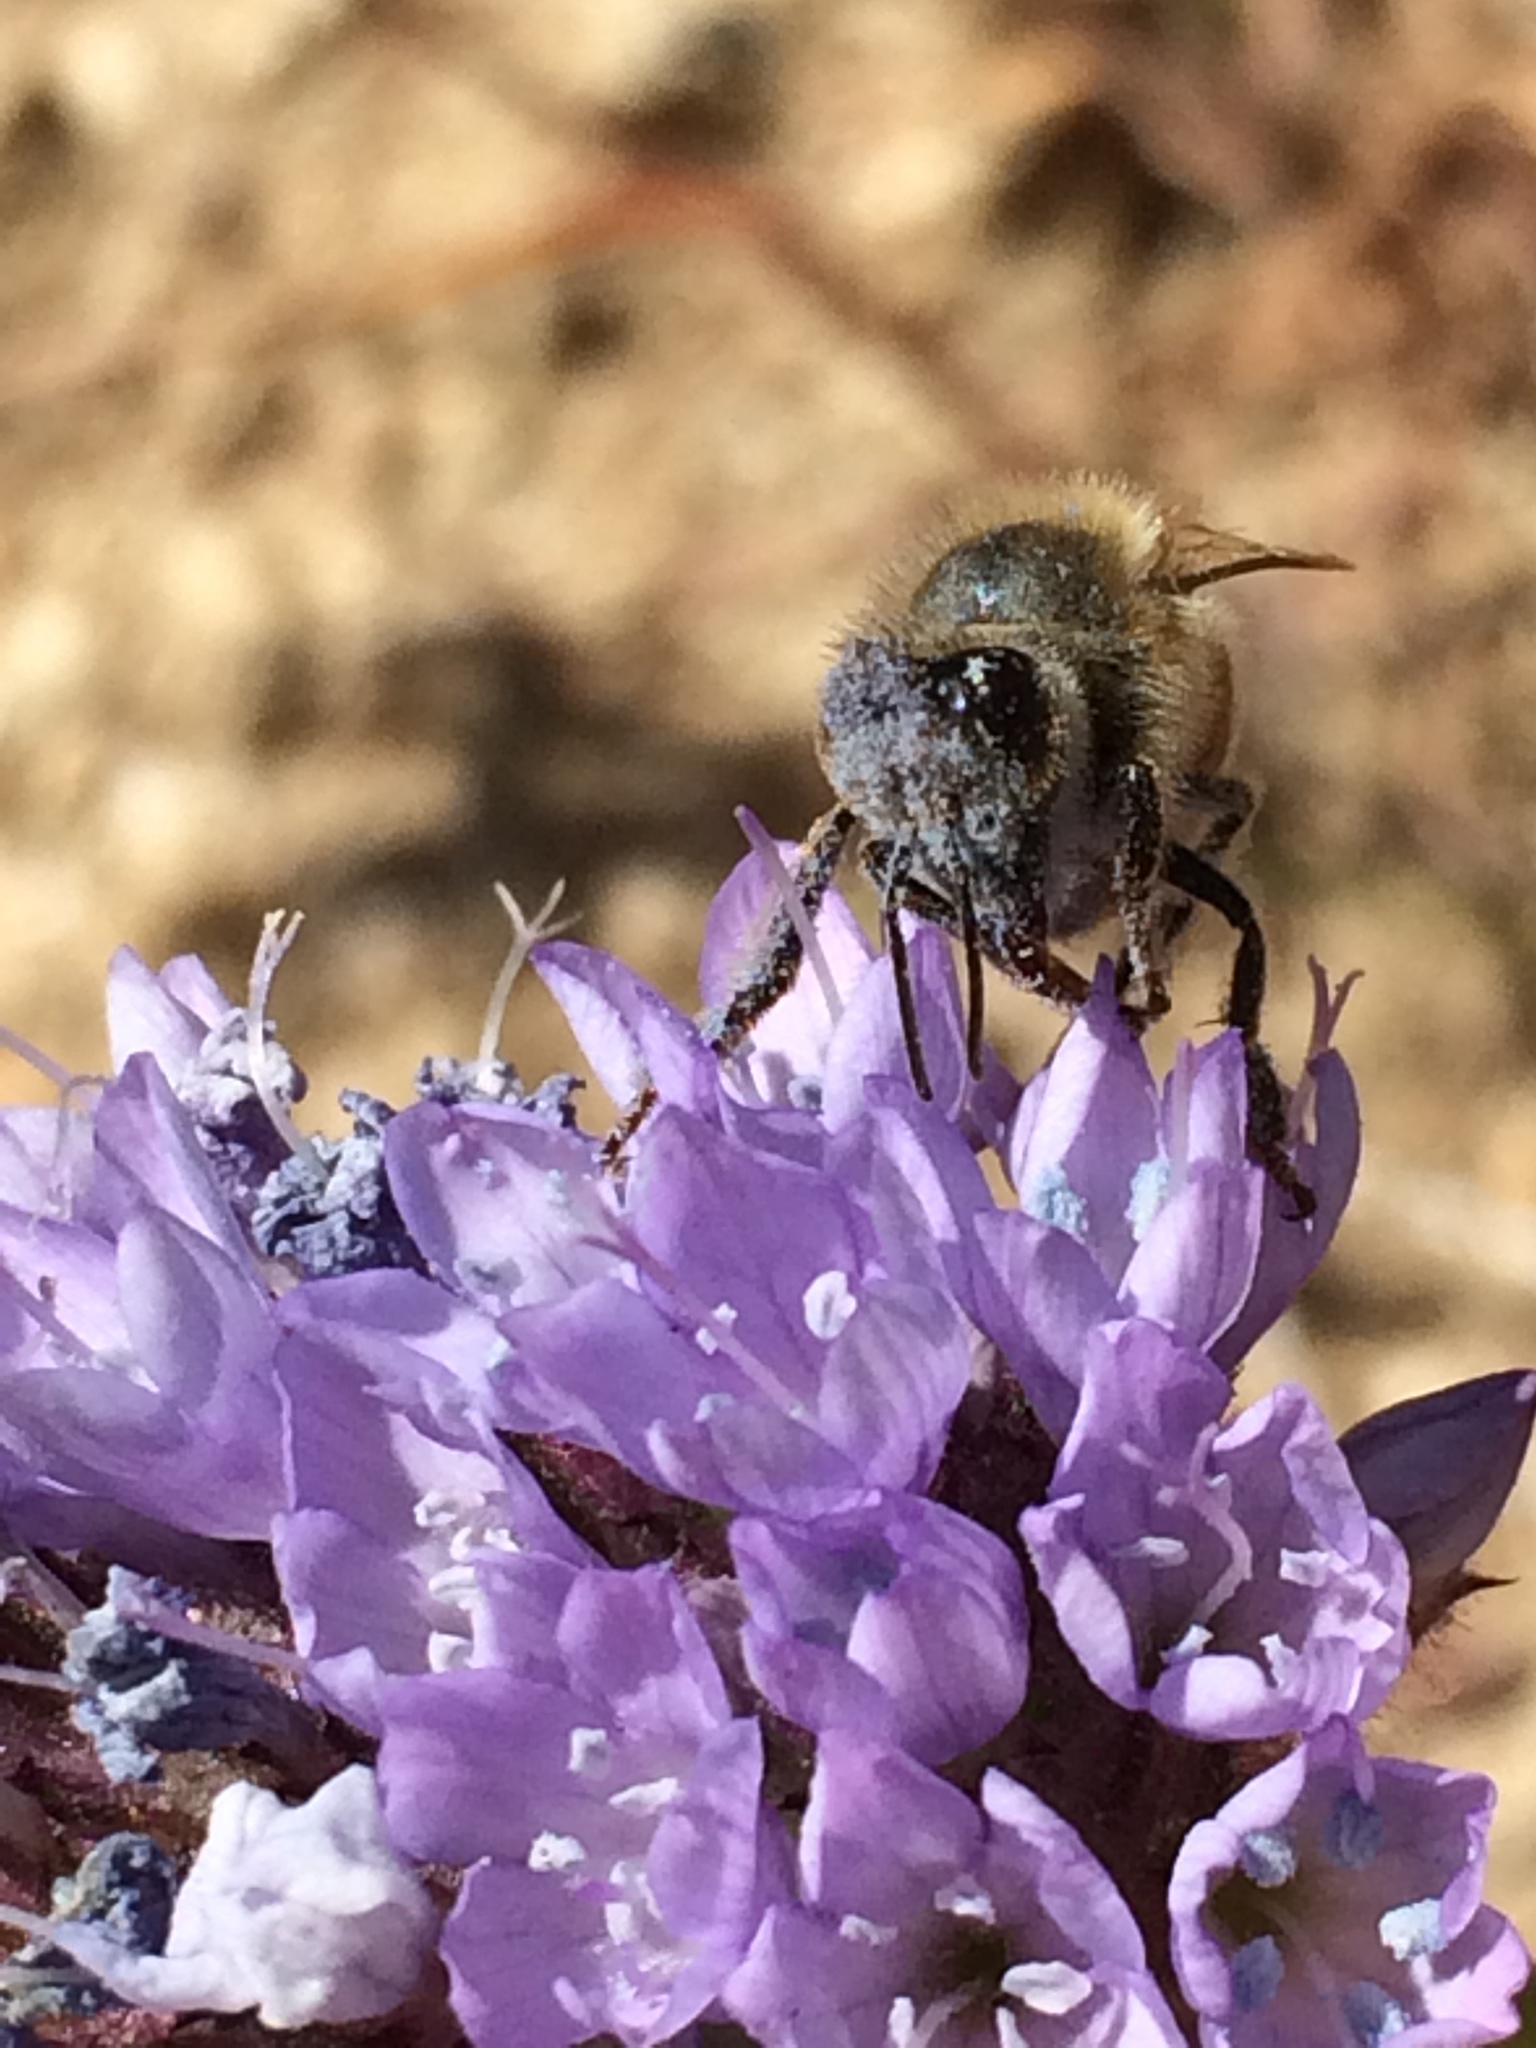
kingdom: Animalia
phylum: Arthropoda
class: Insecta
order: Hymenoptera
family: Apidae
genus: Apis
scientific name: Apis mellifera
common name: Honey bee
